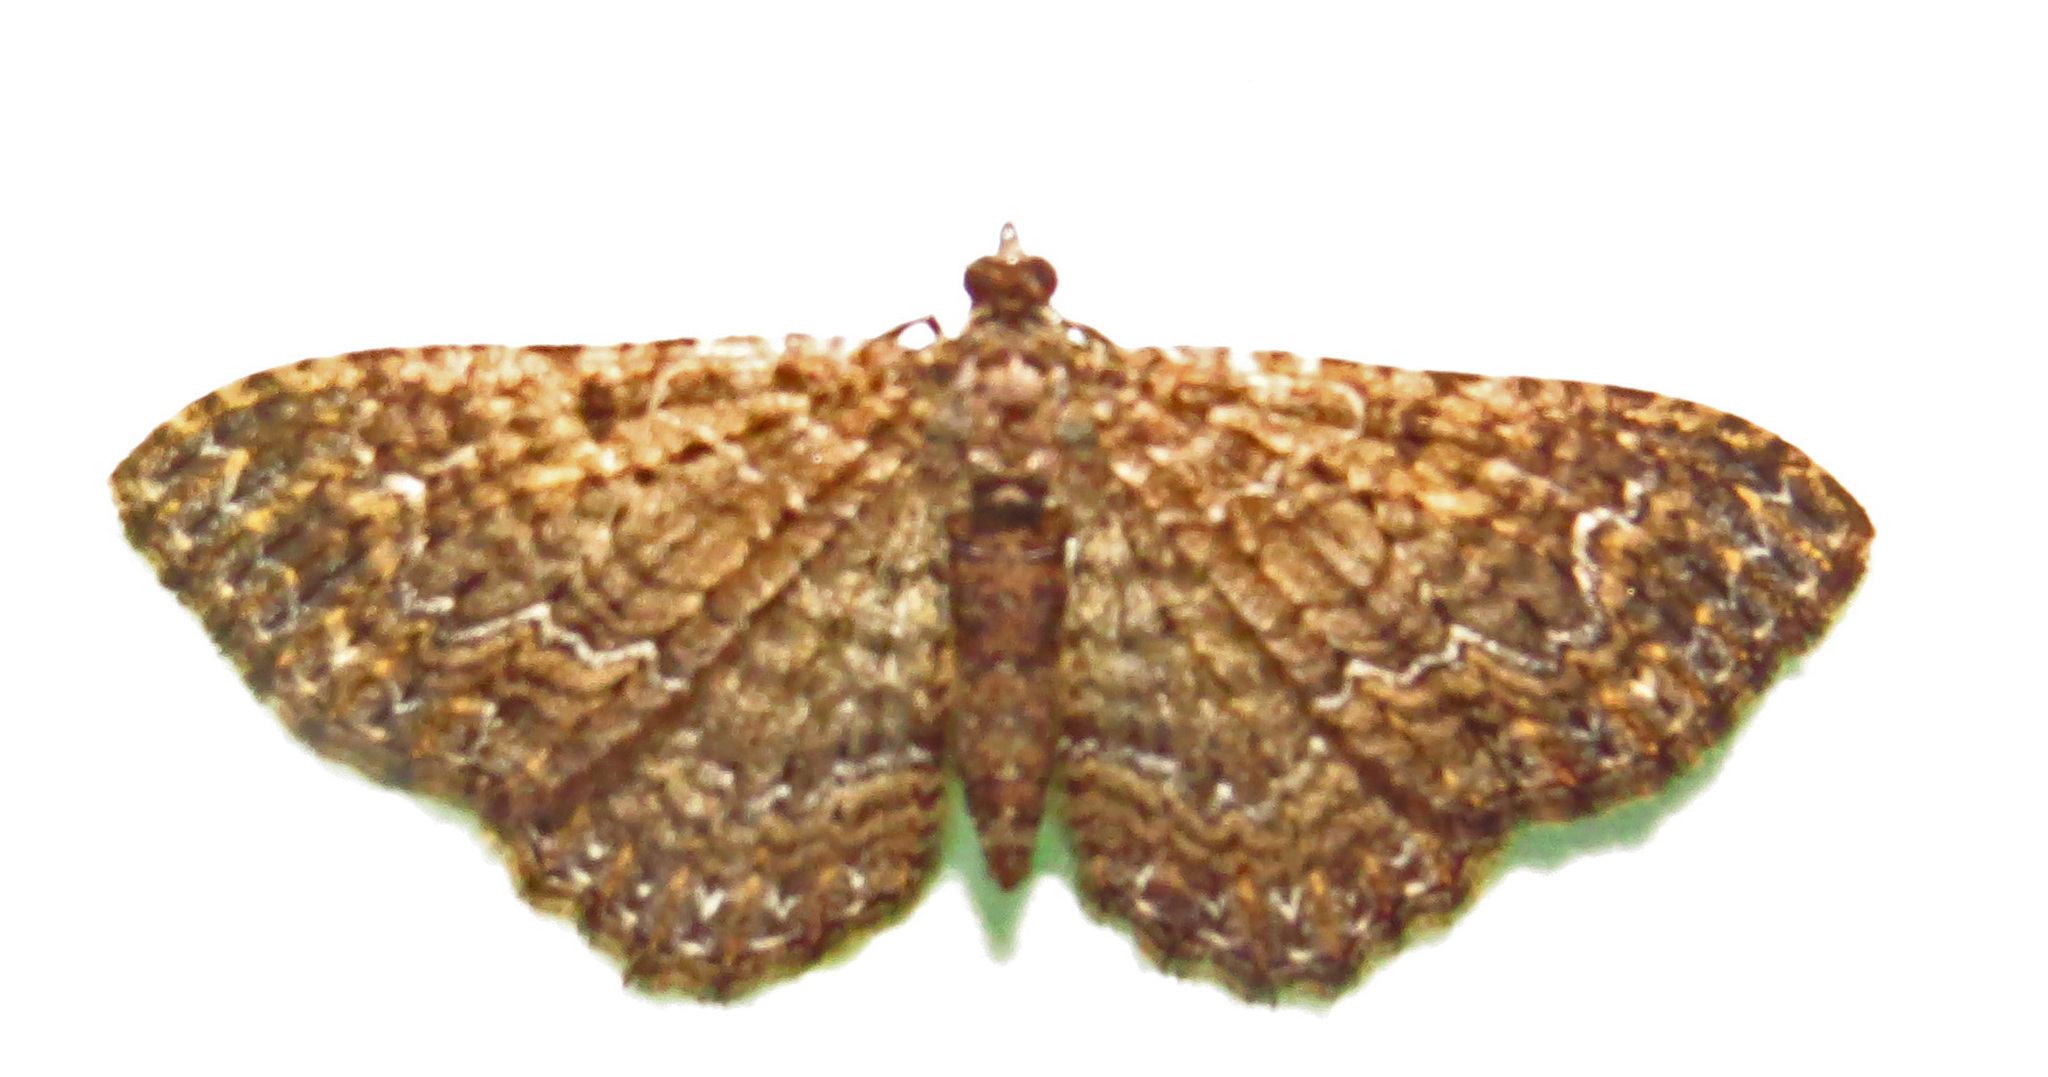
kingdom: Animalia
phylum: Arthropoda
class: Insecta
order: Lepidoptera
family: Geometridae
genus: Disclisioprocta
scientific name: Disclisioprocta stellata
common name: Somber carpet
